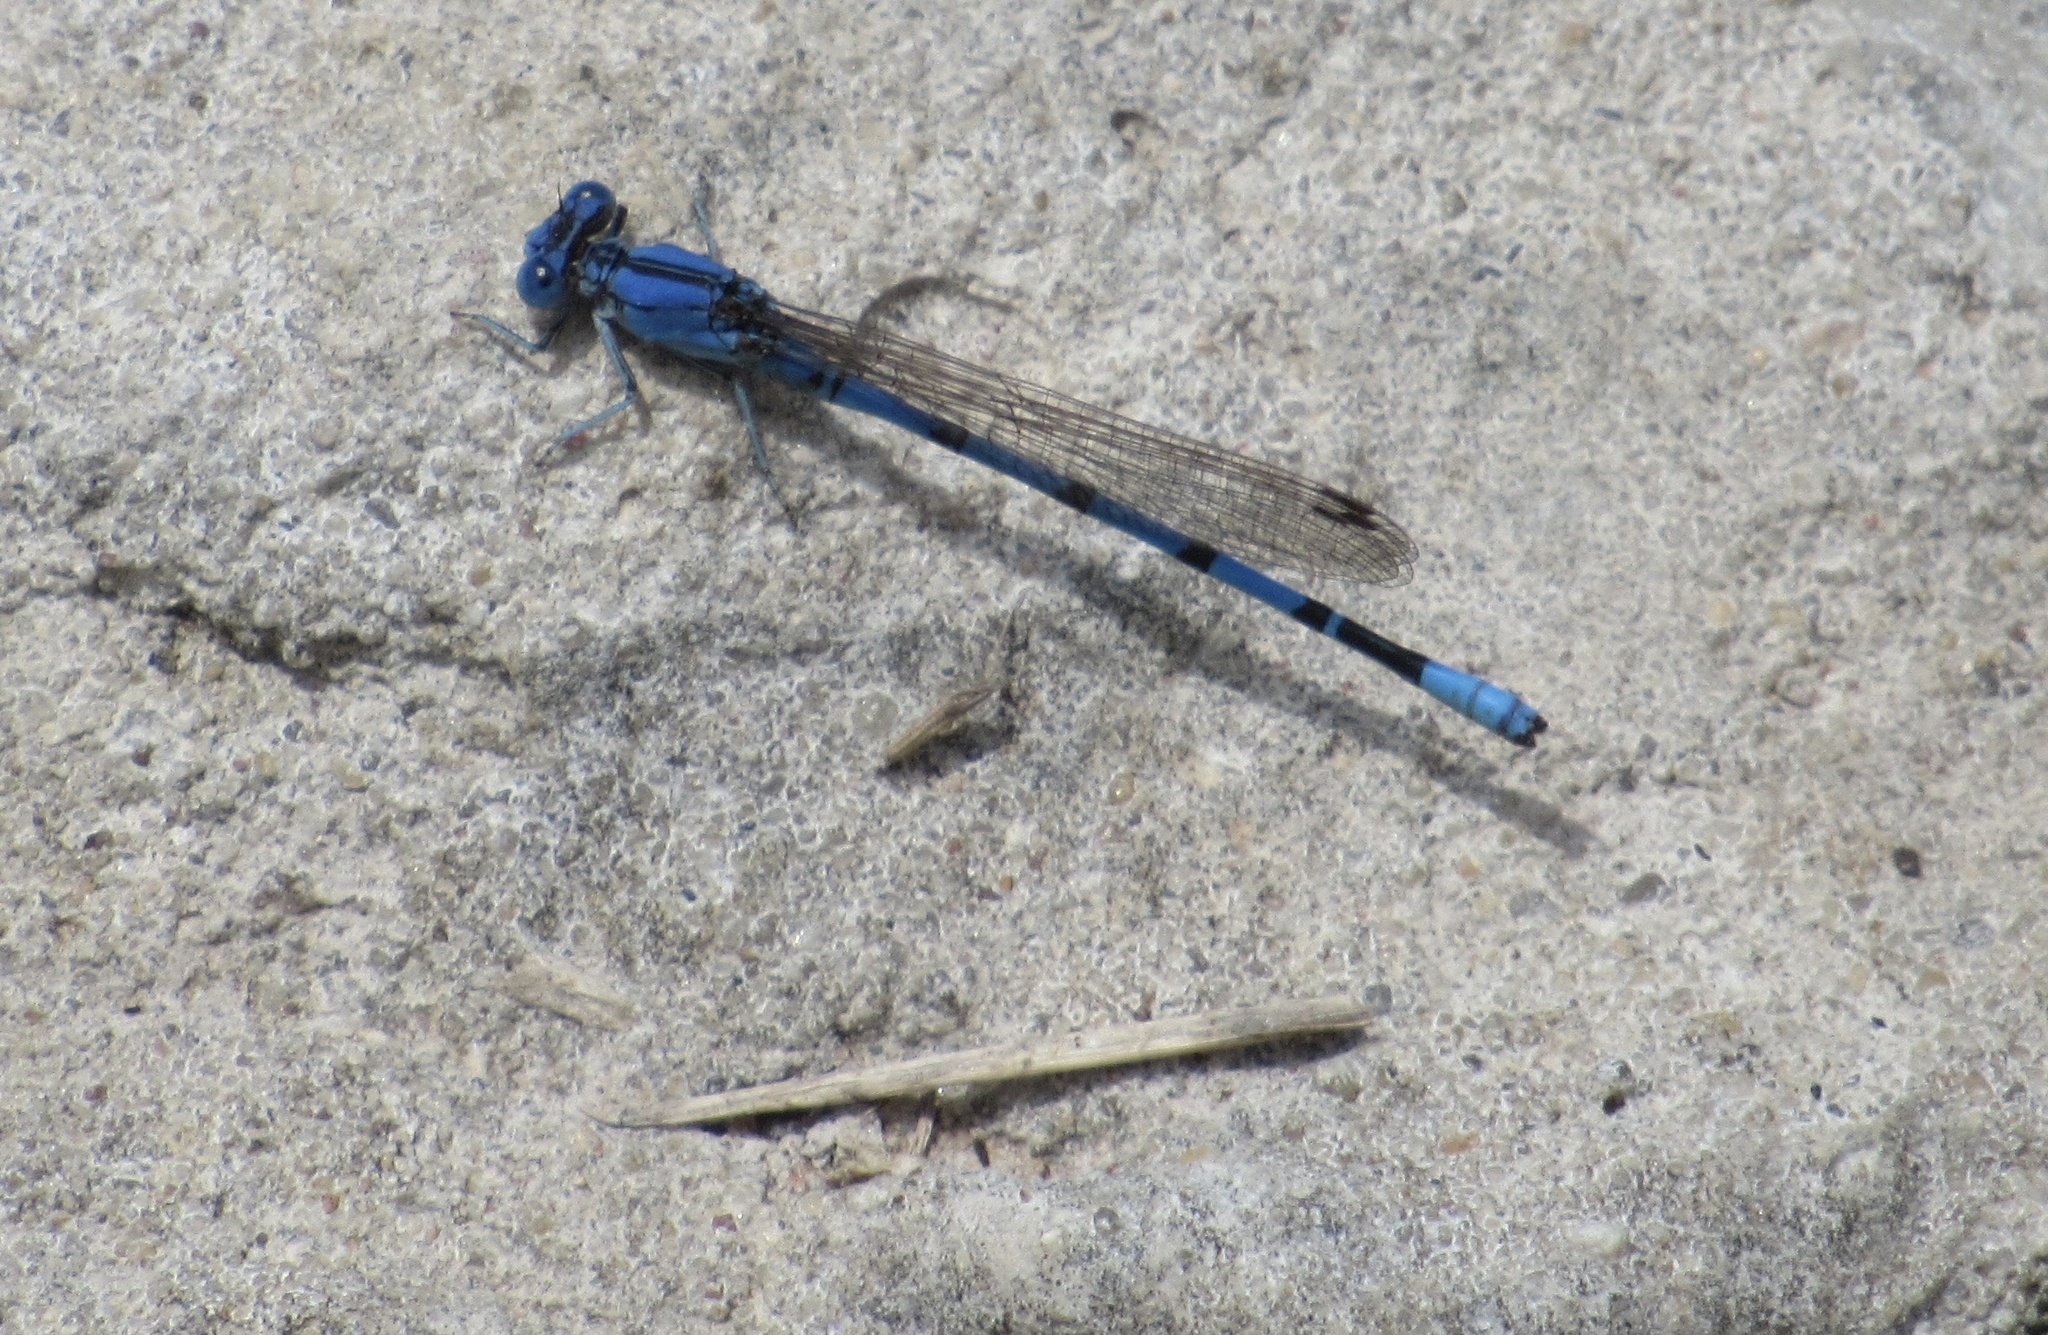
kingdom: Animalia
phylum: Arthropoda
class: Insecta
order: Odonata
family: Coenagrionidae
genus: Argia
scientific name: Argia nahuana
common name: Aztec dancer
